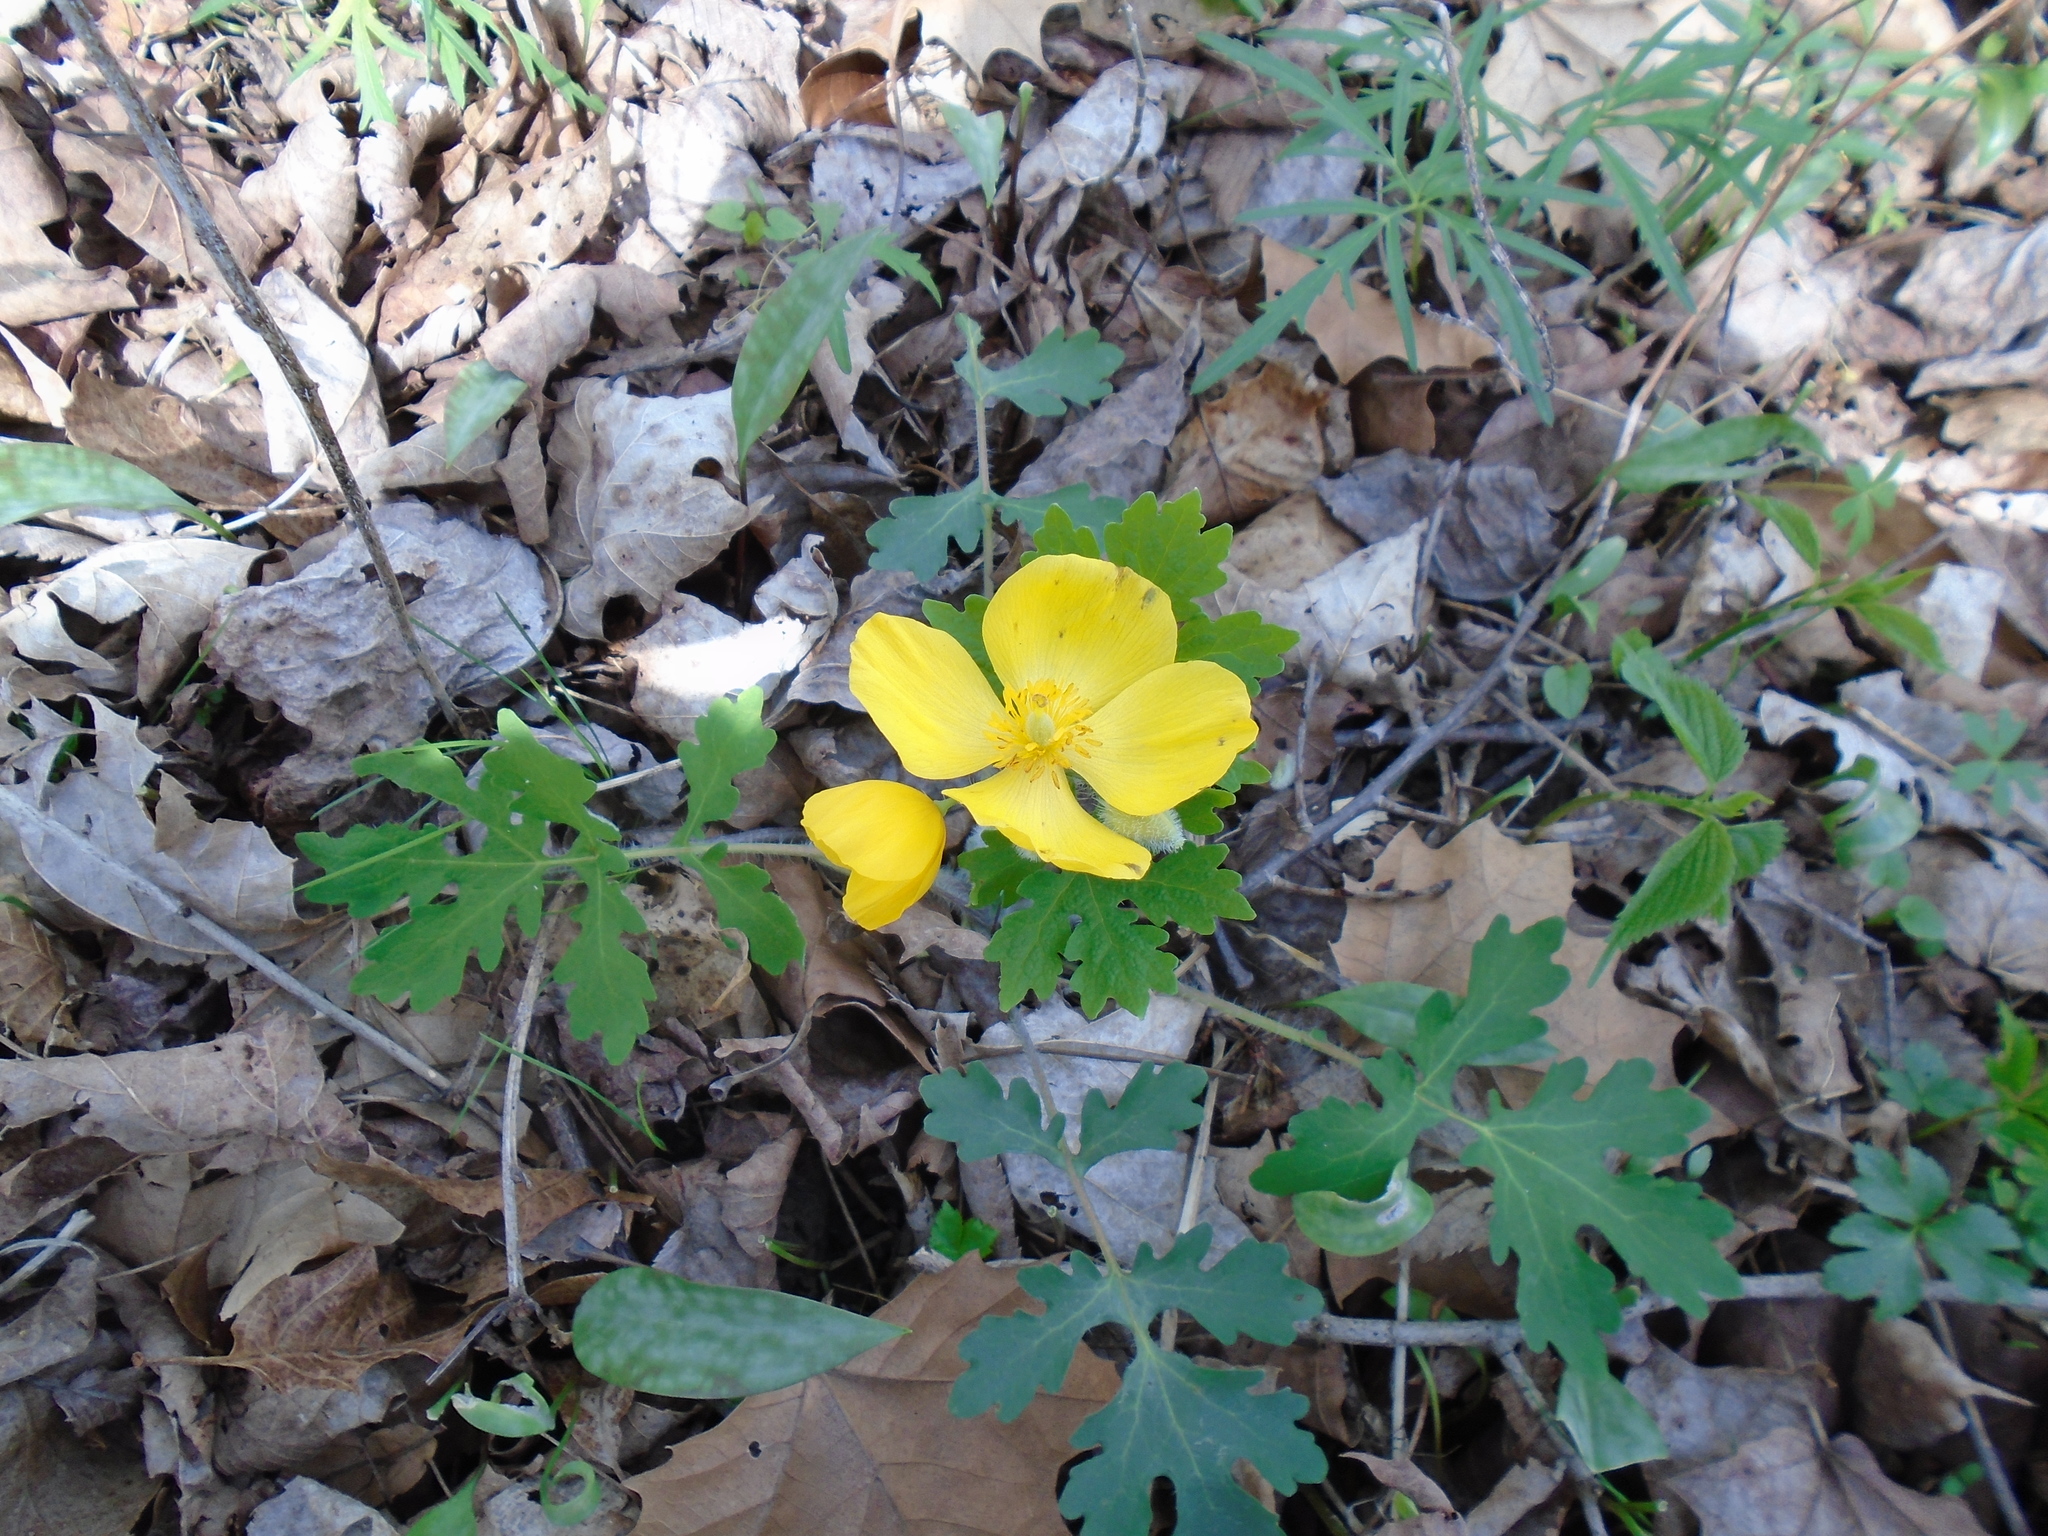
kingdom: Plantae
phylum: Tracheophyta
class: Magnoliopsida
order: Ranunculales
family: Papaveraceae
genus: Stylophorum
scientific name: Stylophorum diphyllum
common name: Celandine poppy
